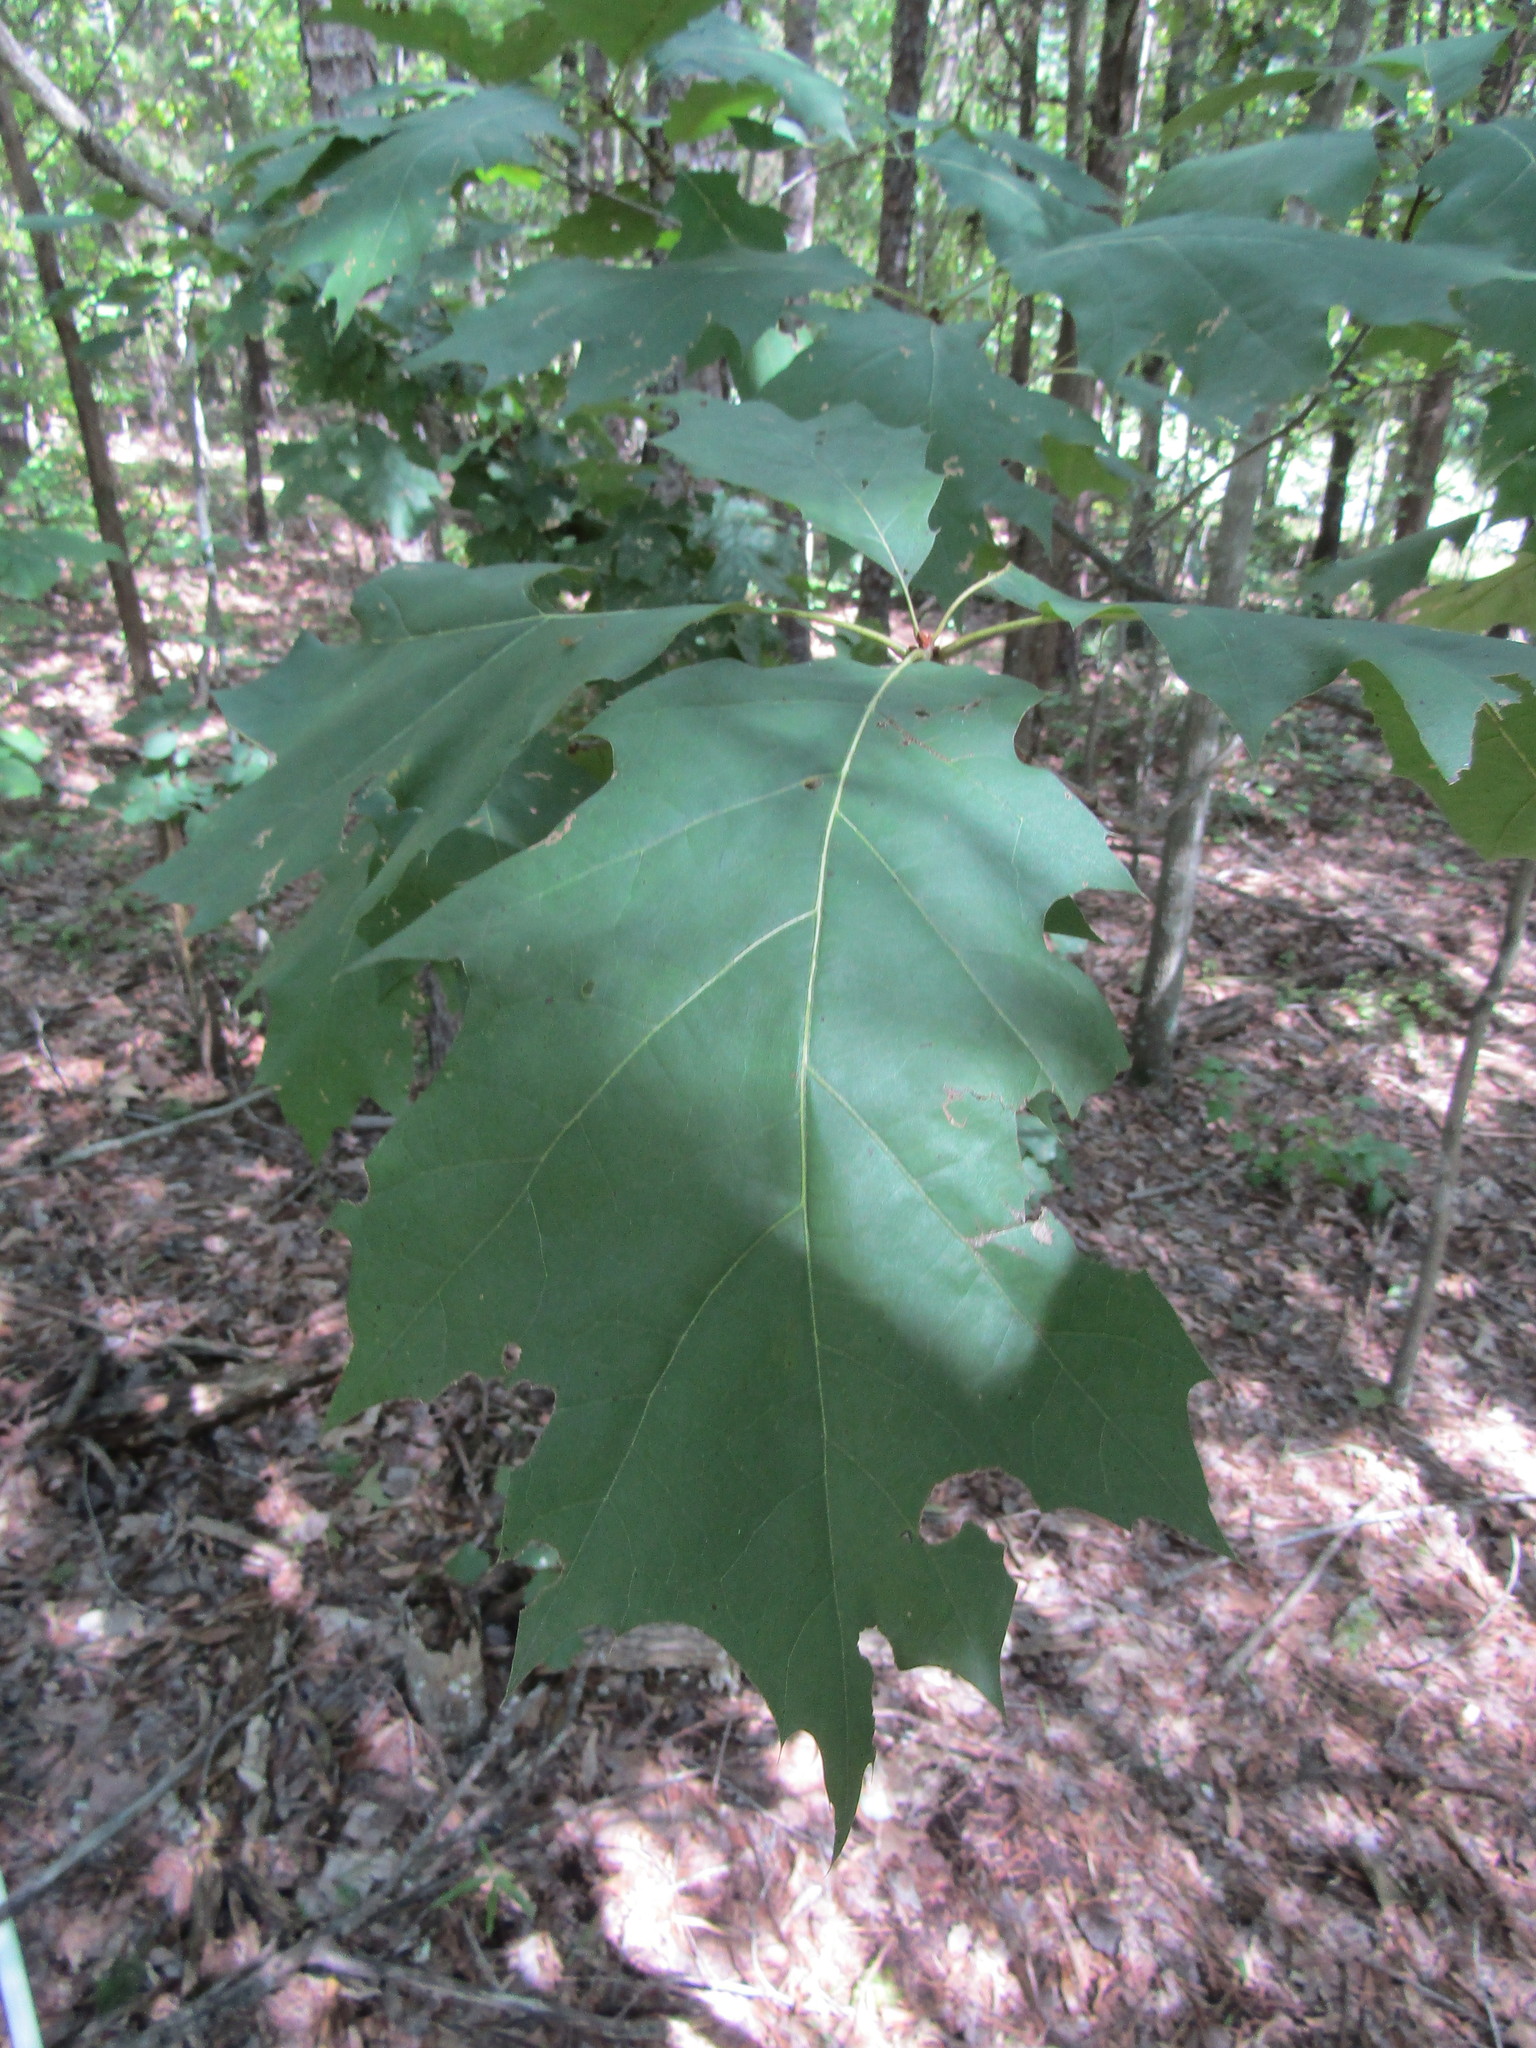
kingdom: Plantae
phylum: Tracheophyta
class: Magnoliopsida
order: Fagales
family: Fagaceae
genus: Quercus
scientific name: Quercus rubra
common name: Red oak
